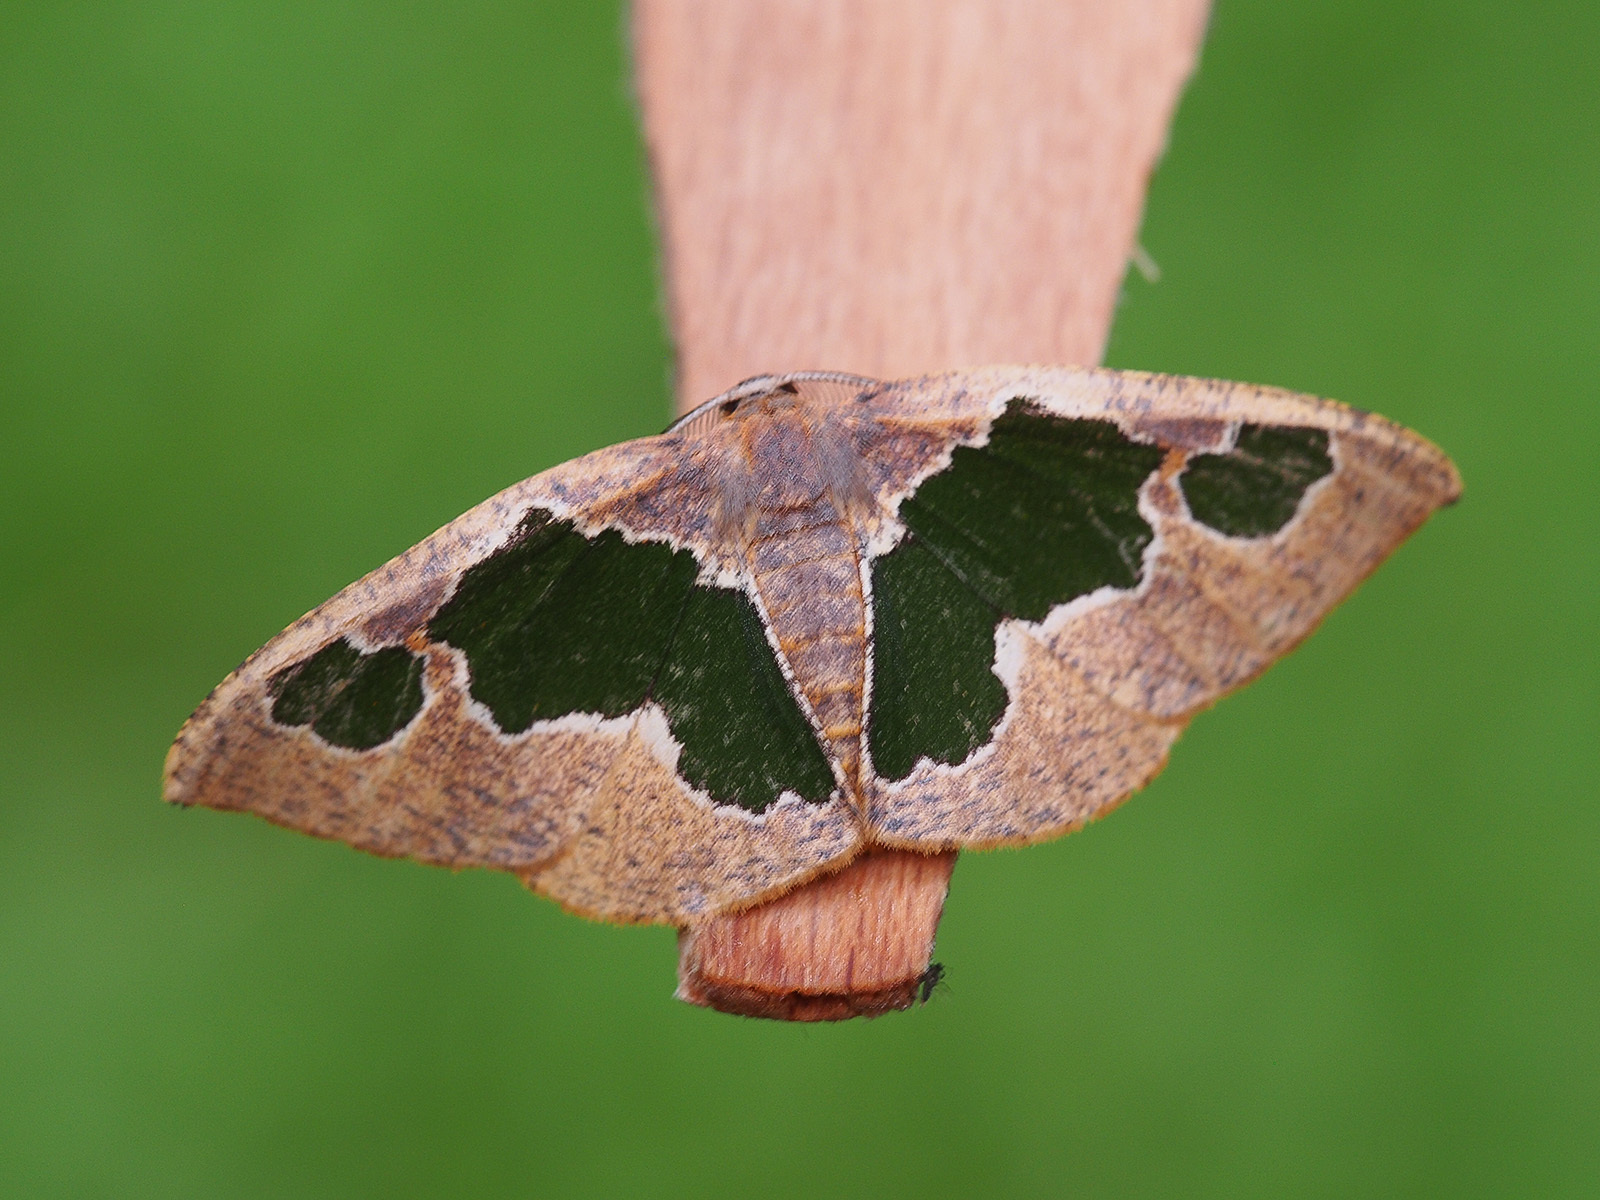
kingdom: Animalia
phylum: Arthropoda
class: Insecta
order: Lepidoptera
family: Geometridae
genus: Celenna
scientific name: Celenna festivaria
